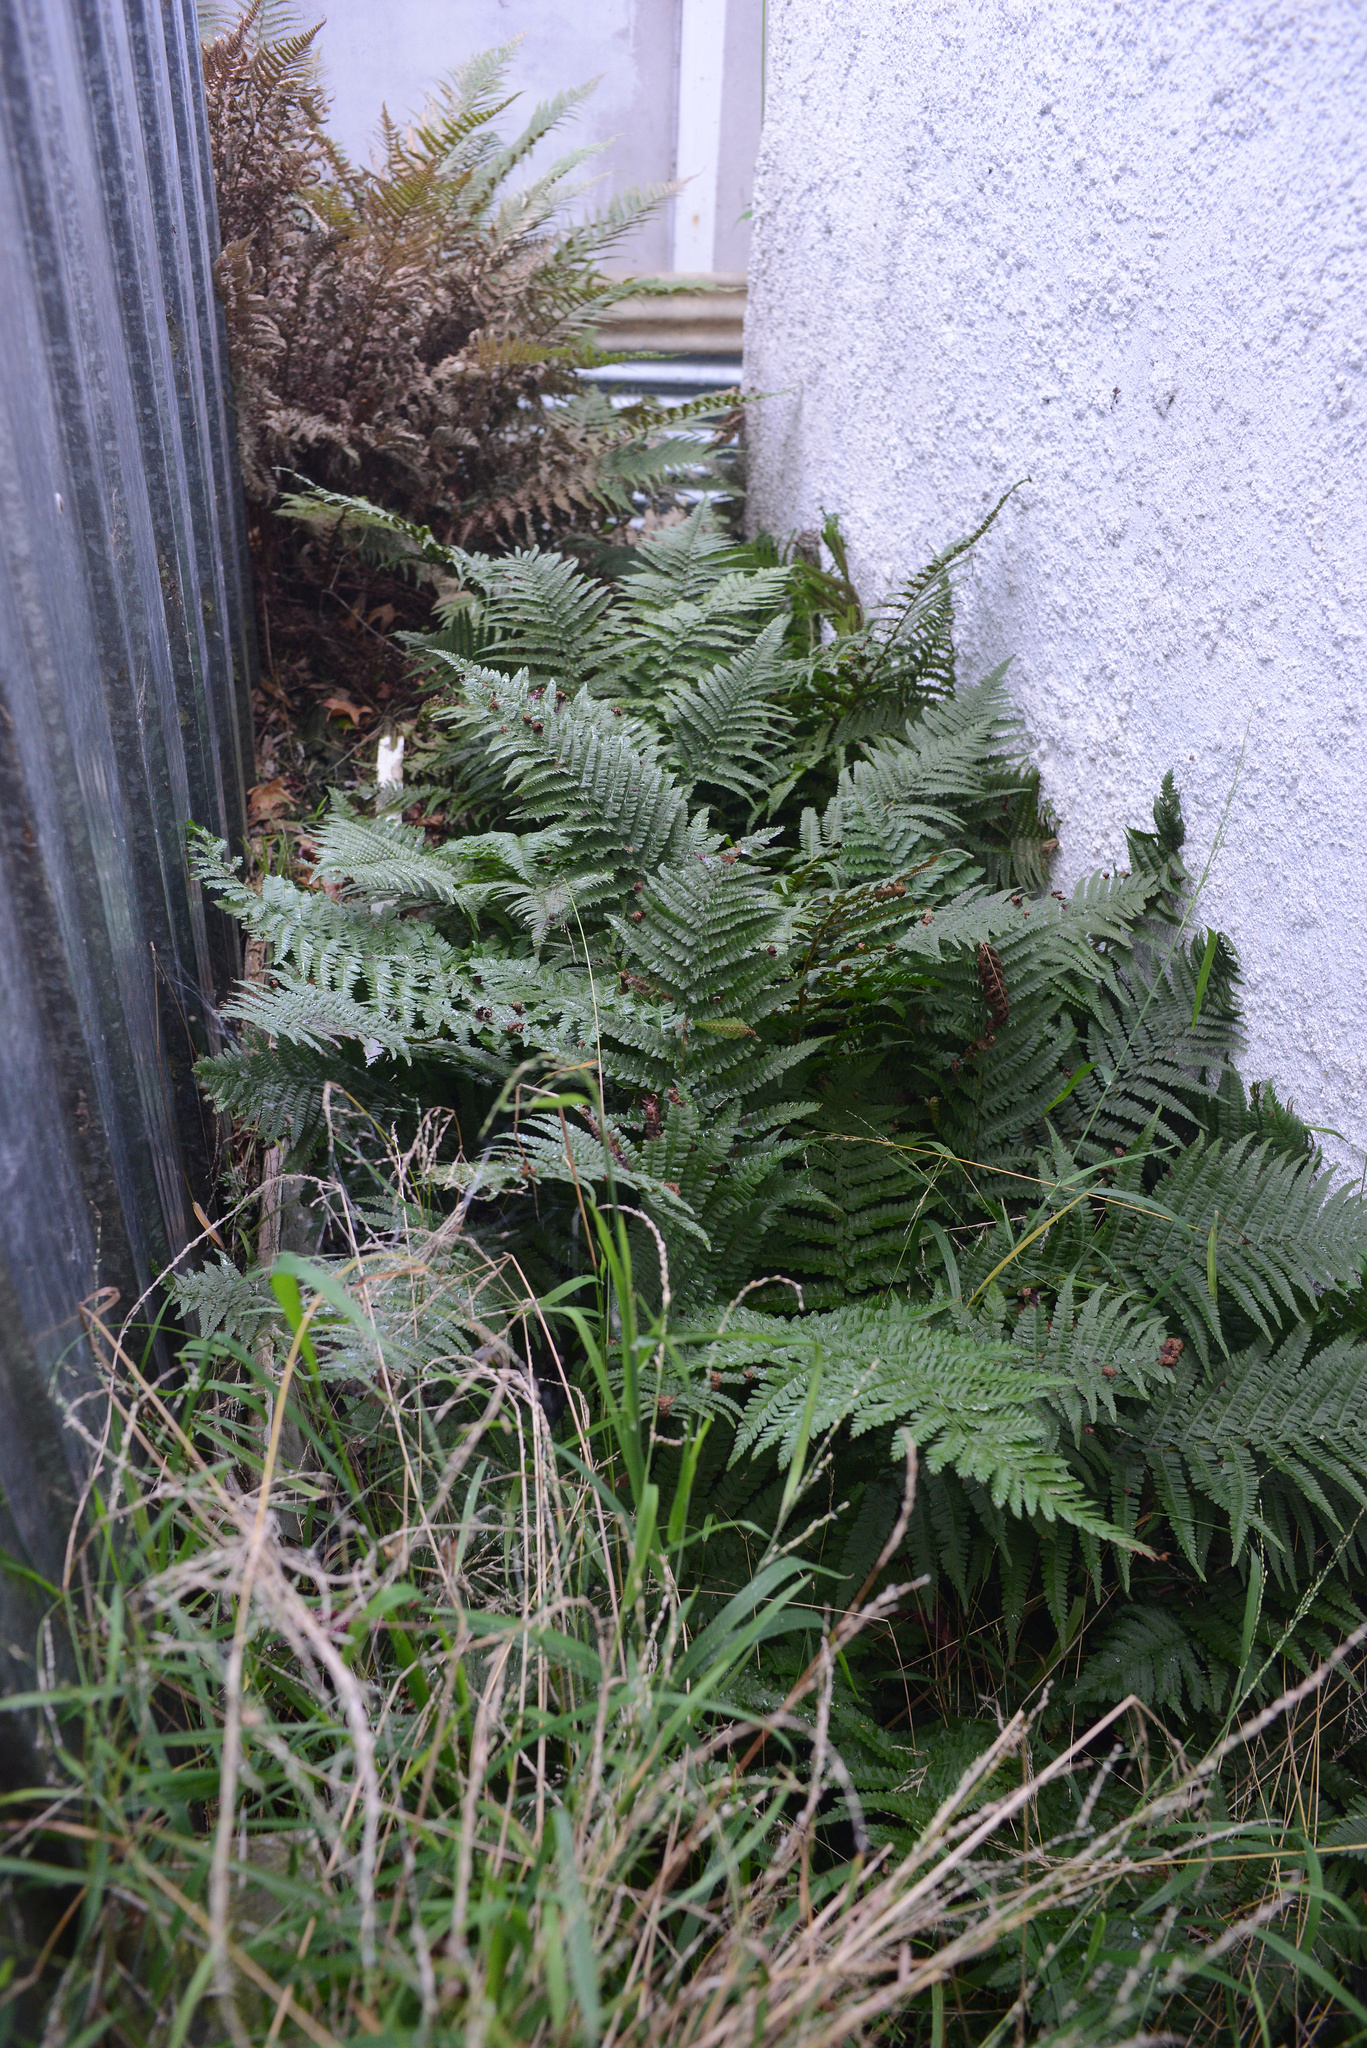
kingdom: Plantae
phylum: Tracheophyta
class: Polypodiopsida
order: Polypodiales
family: Dryopteridaceae
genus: Dryopteris
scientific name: Dryopteris filix-mas
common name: Male fern
